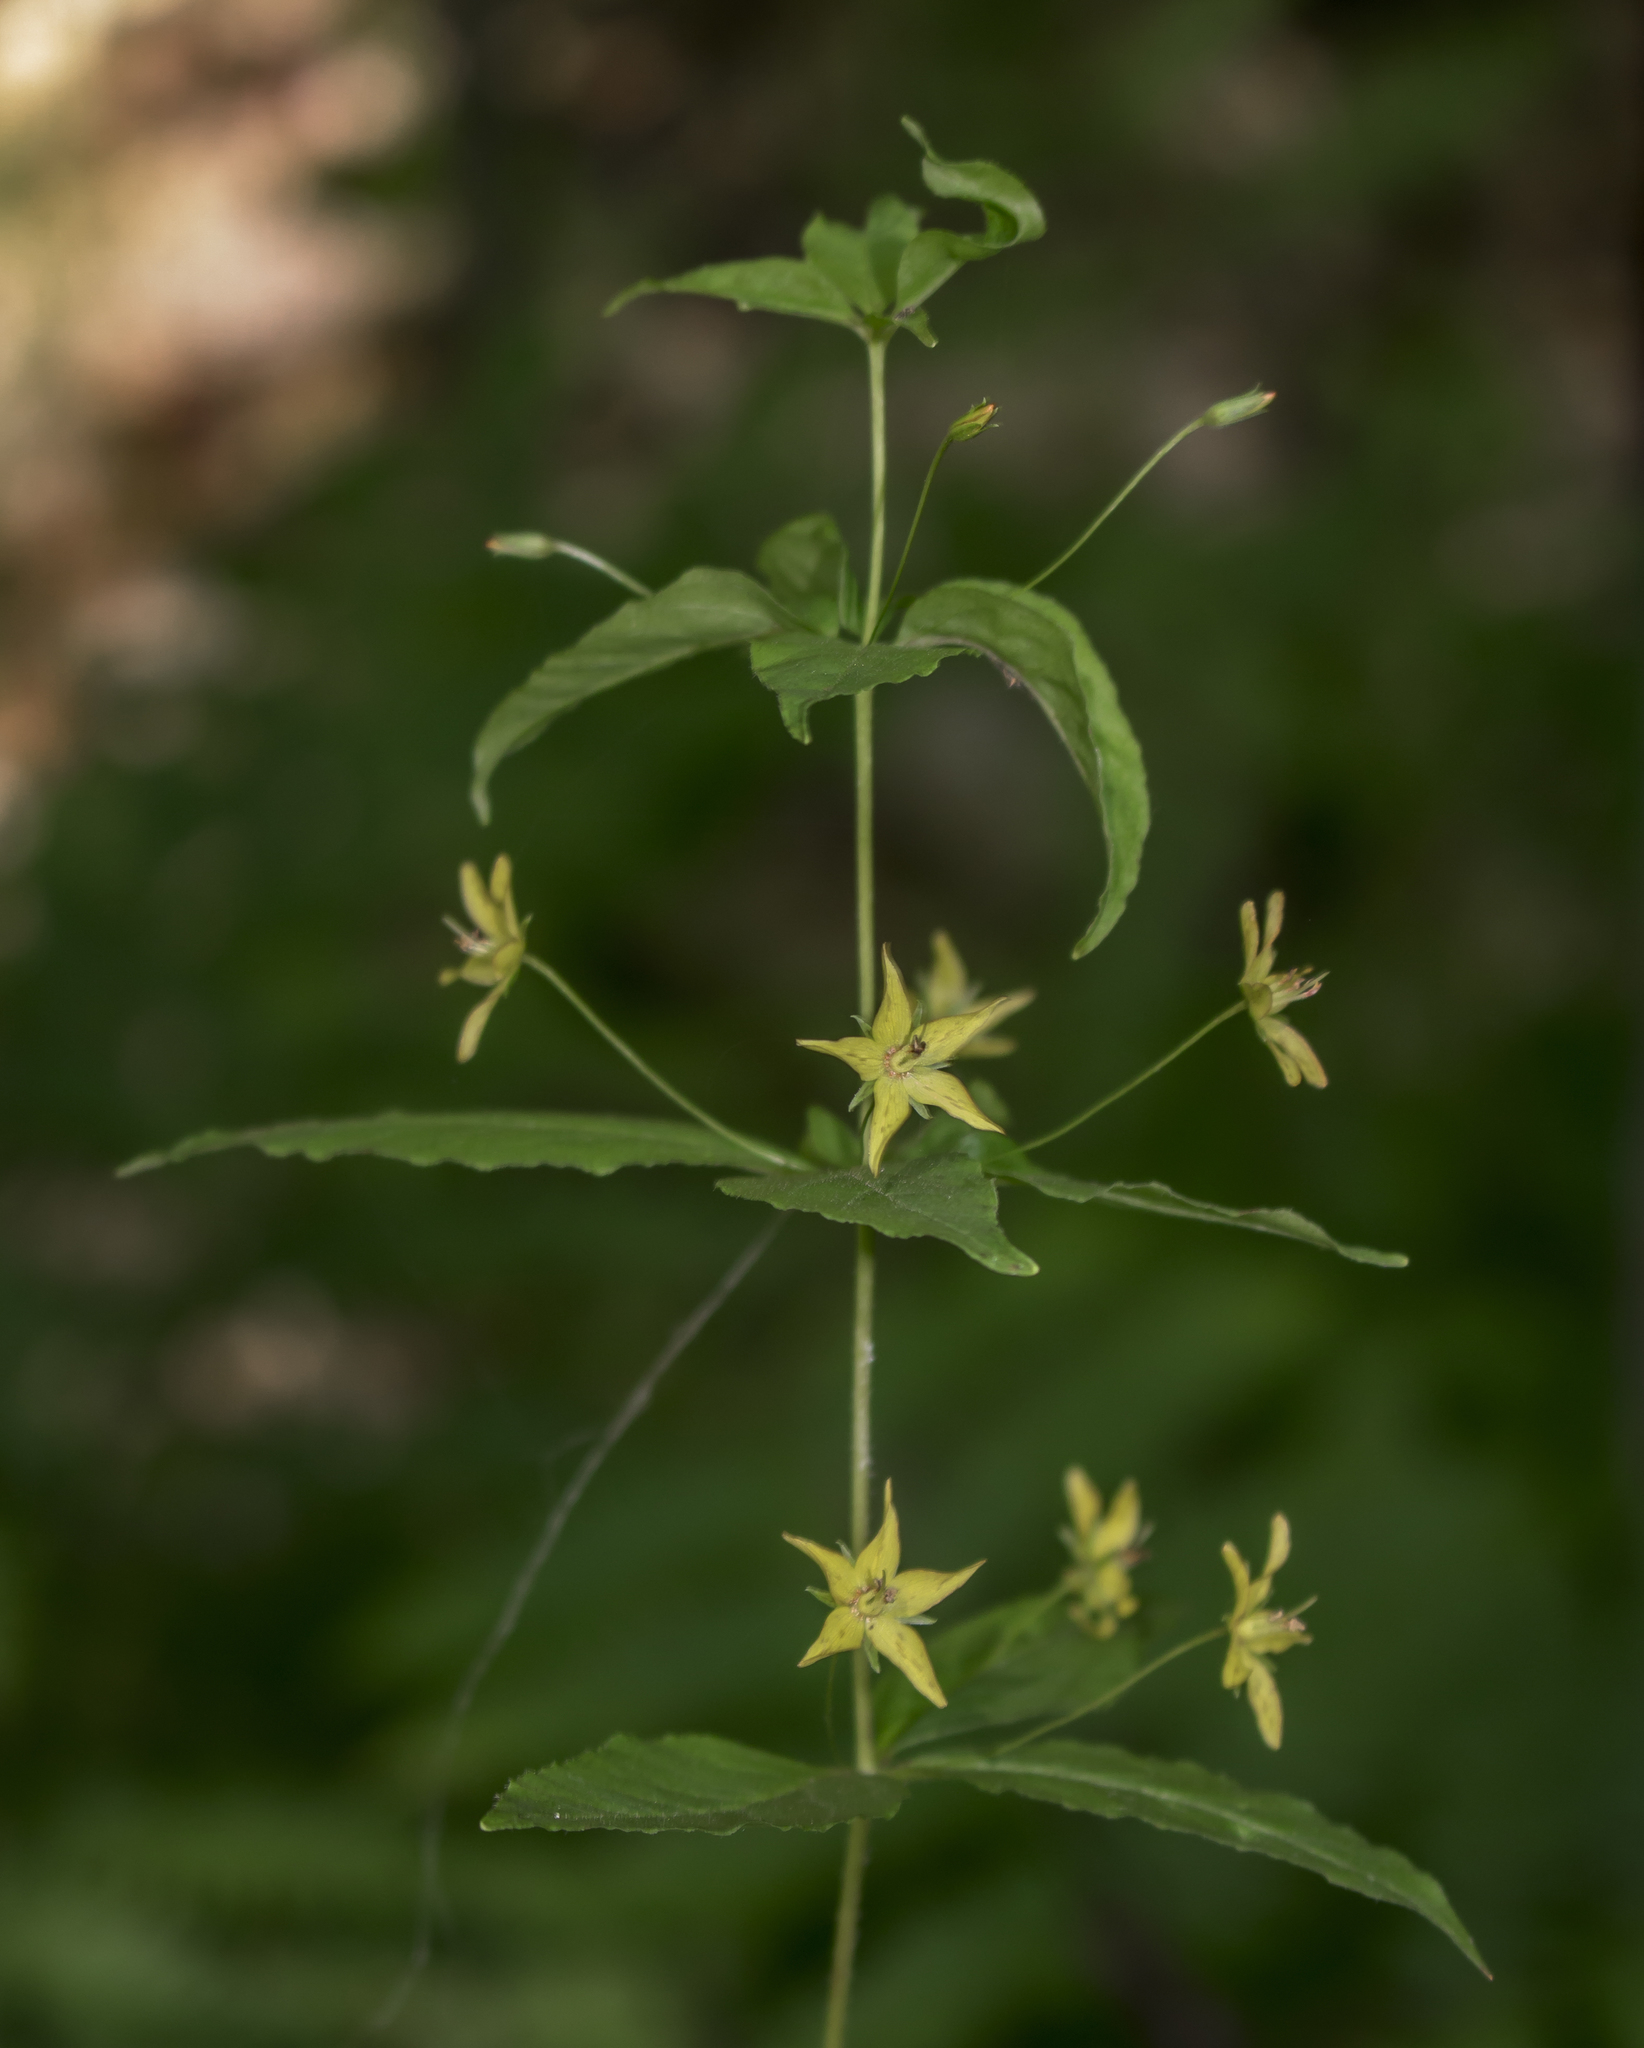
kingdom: Plantae
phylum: Tracheophyta
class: Magnoliopsida
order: Ericales
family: Primulaceae
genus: Lysimachia
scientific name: Lysimachia quadrifolia
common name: Whorled loosestrife
